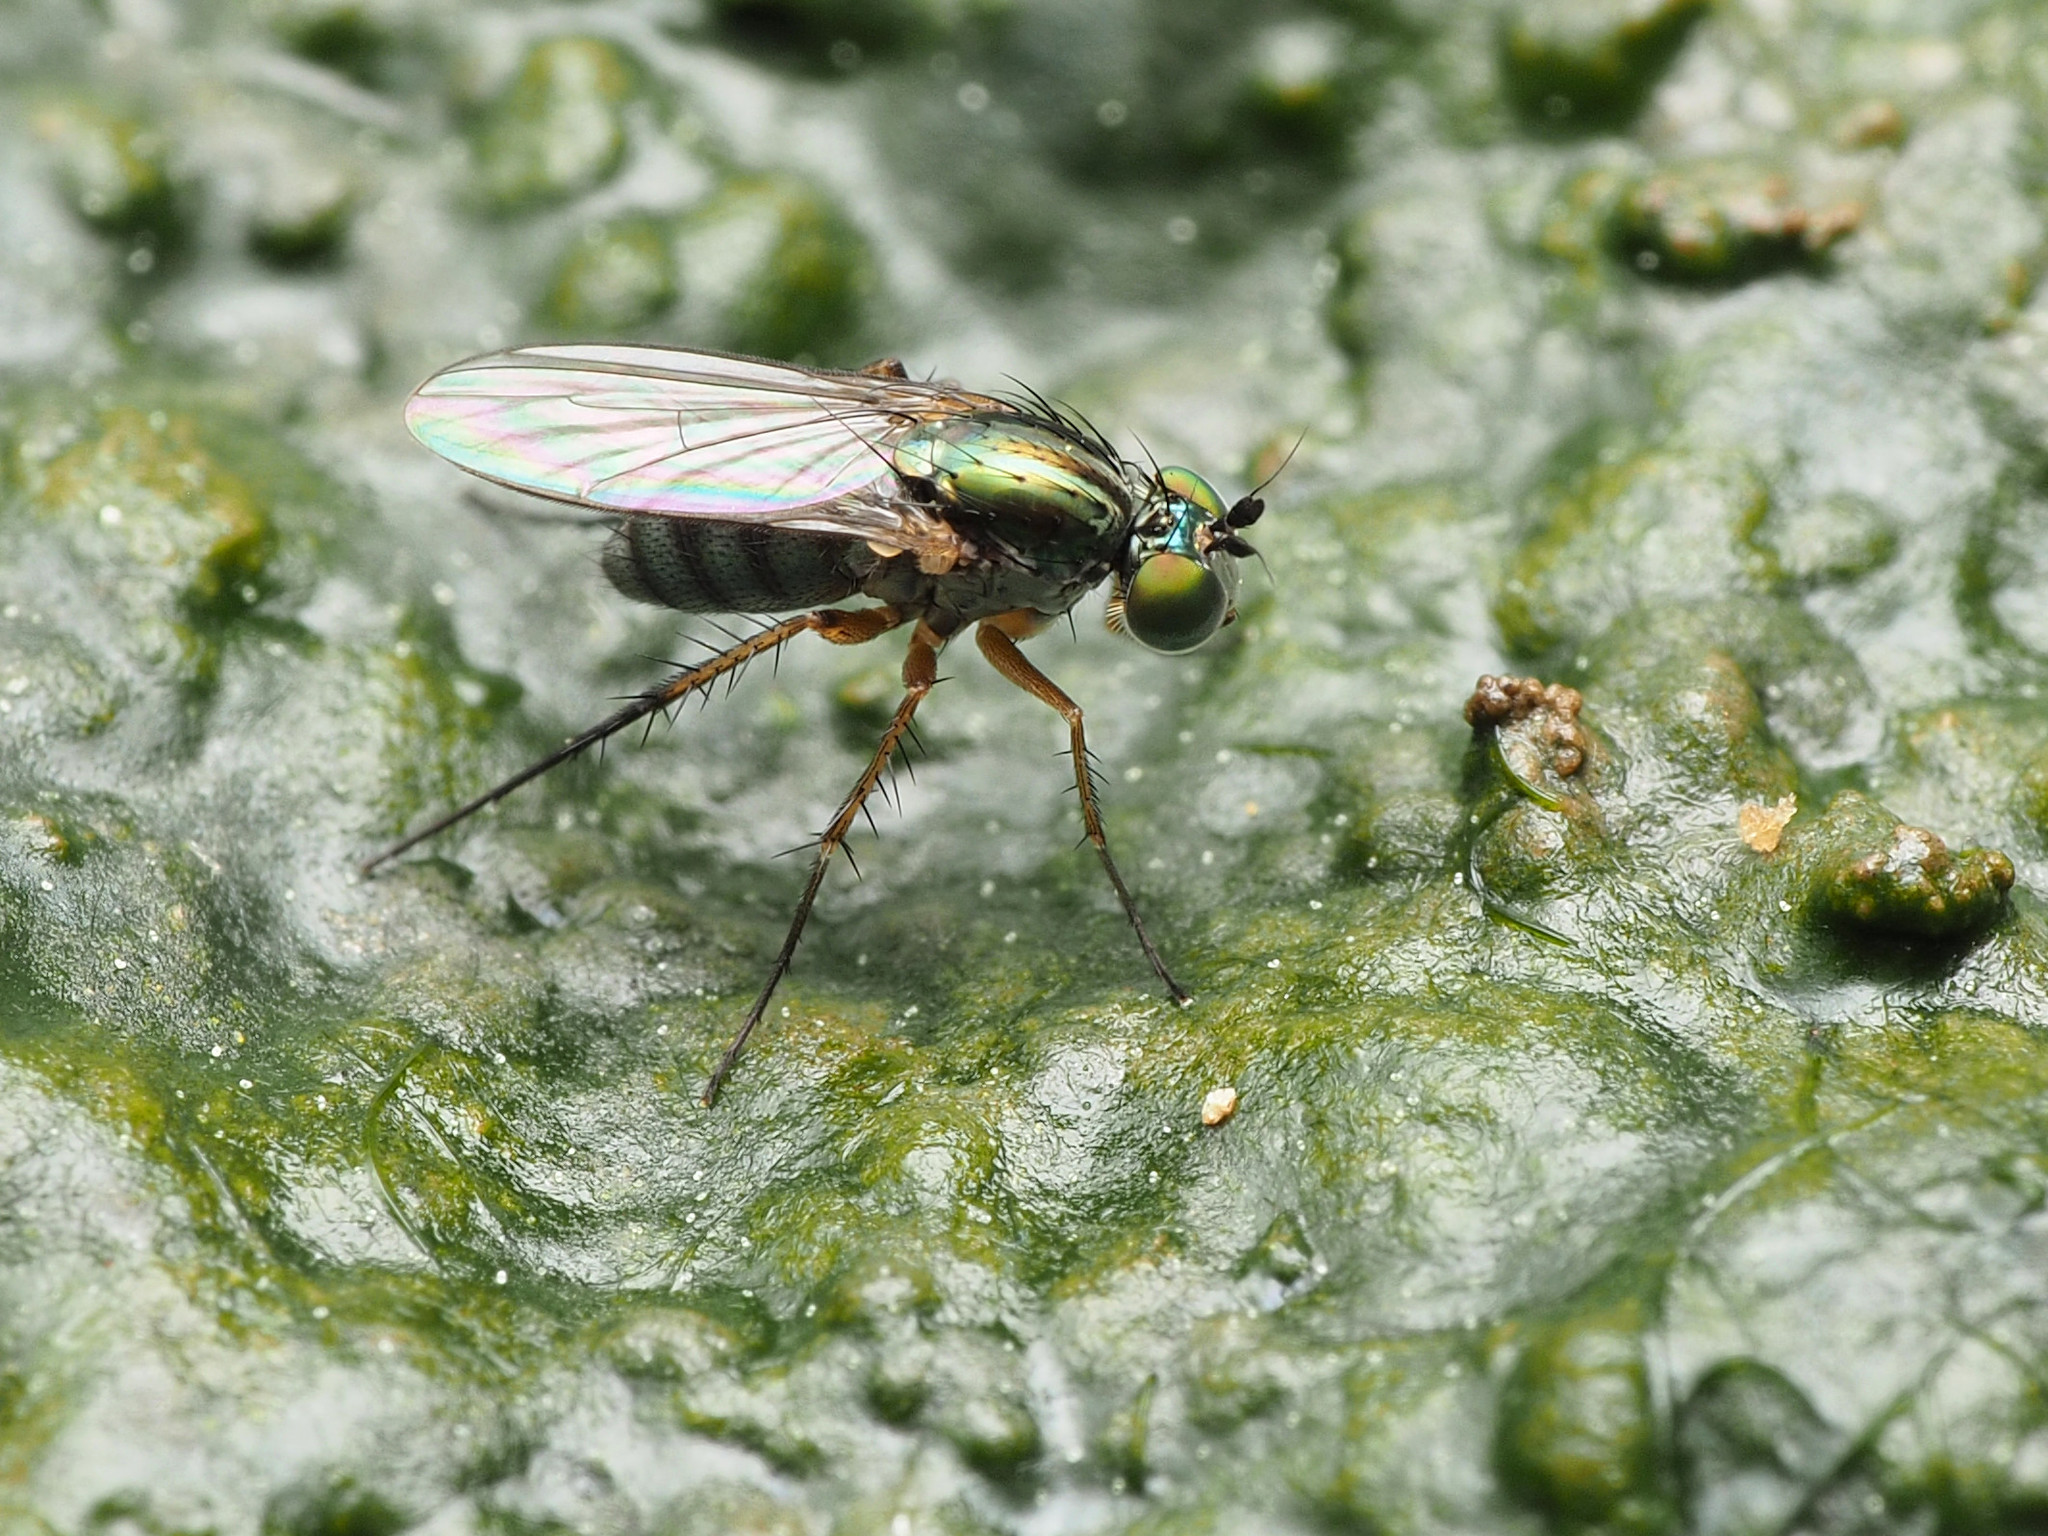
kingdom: Animalia
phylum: Arthropoda
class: Insecta
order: Diptera
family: Dolichopodidae
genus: Dolichopus
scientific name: Dolichopus reflectus
